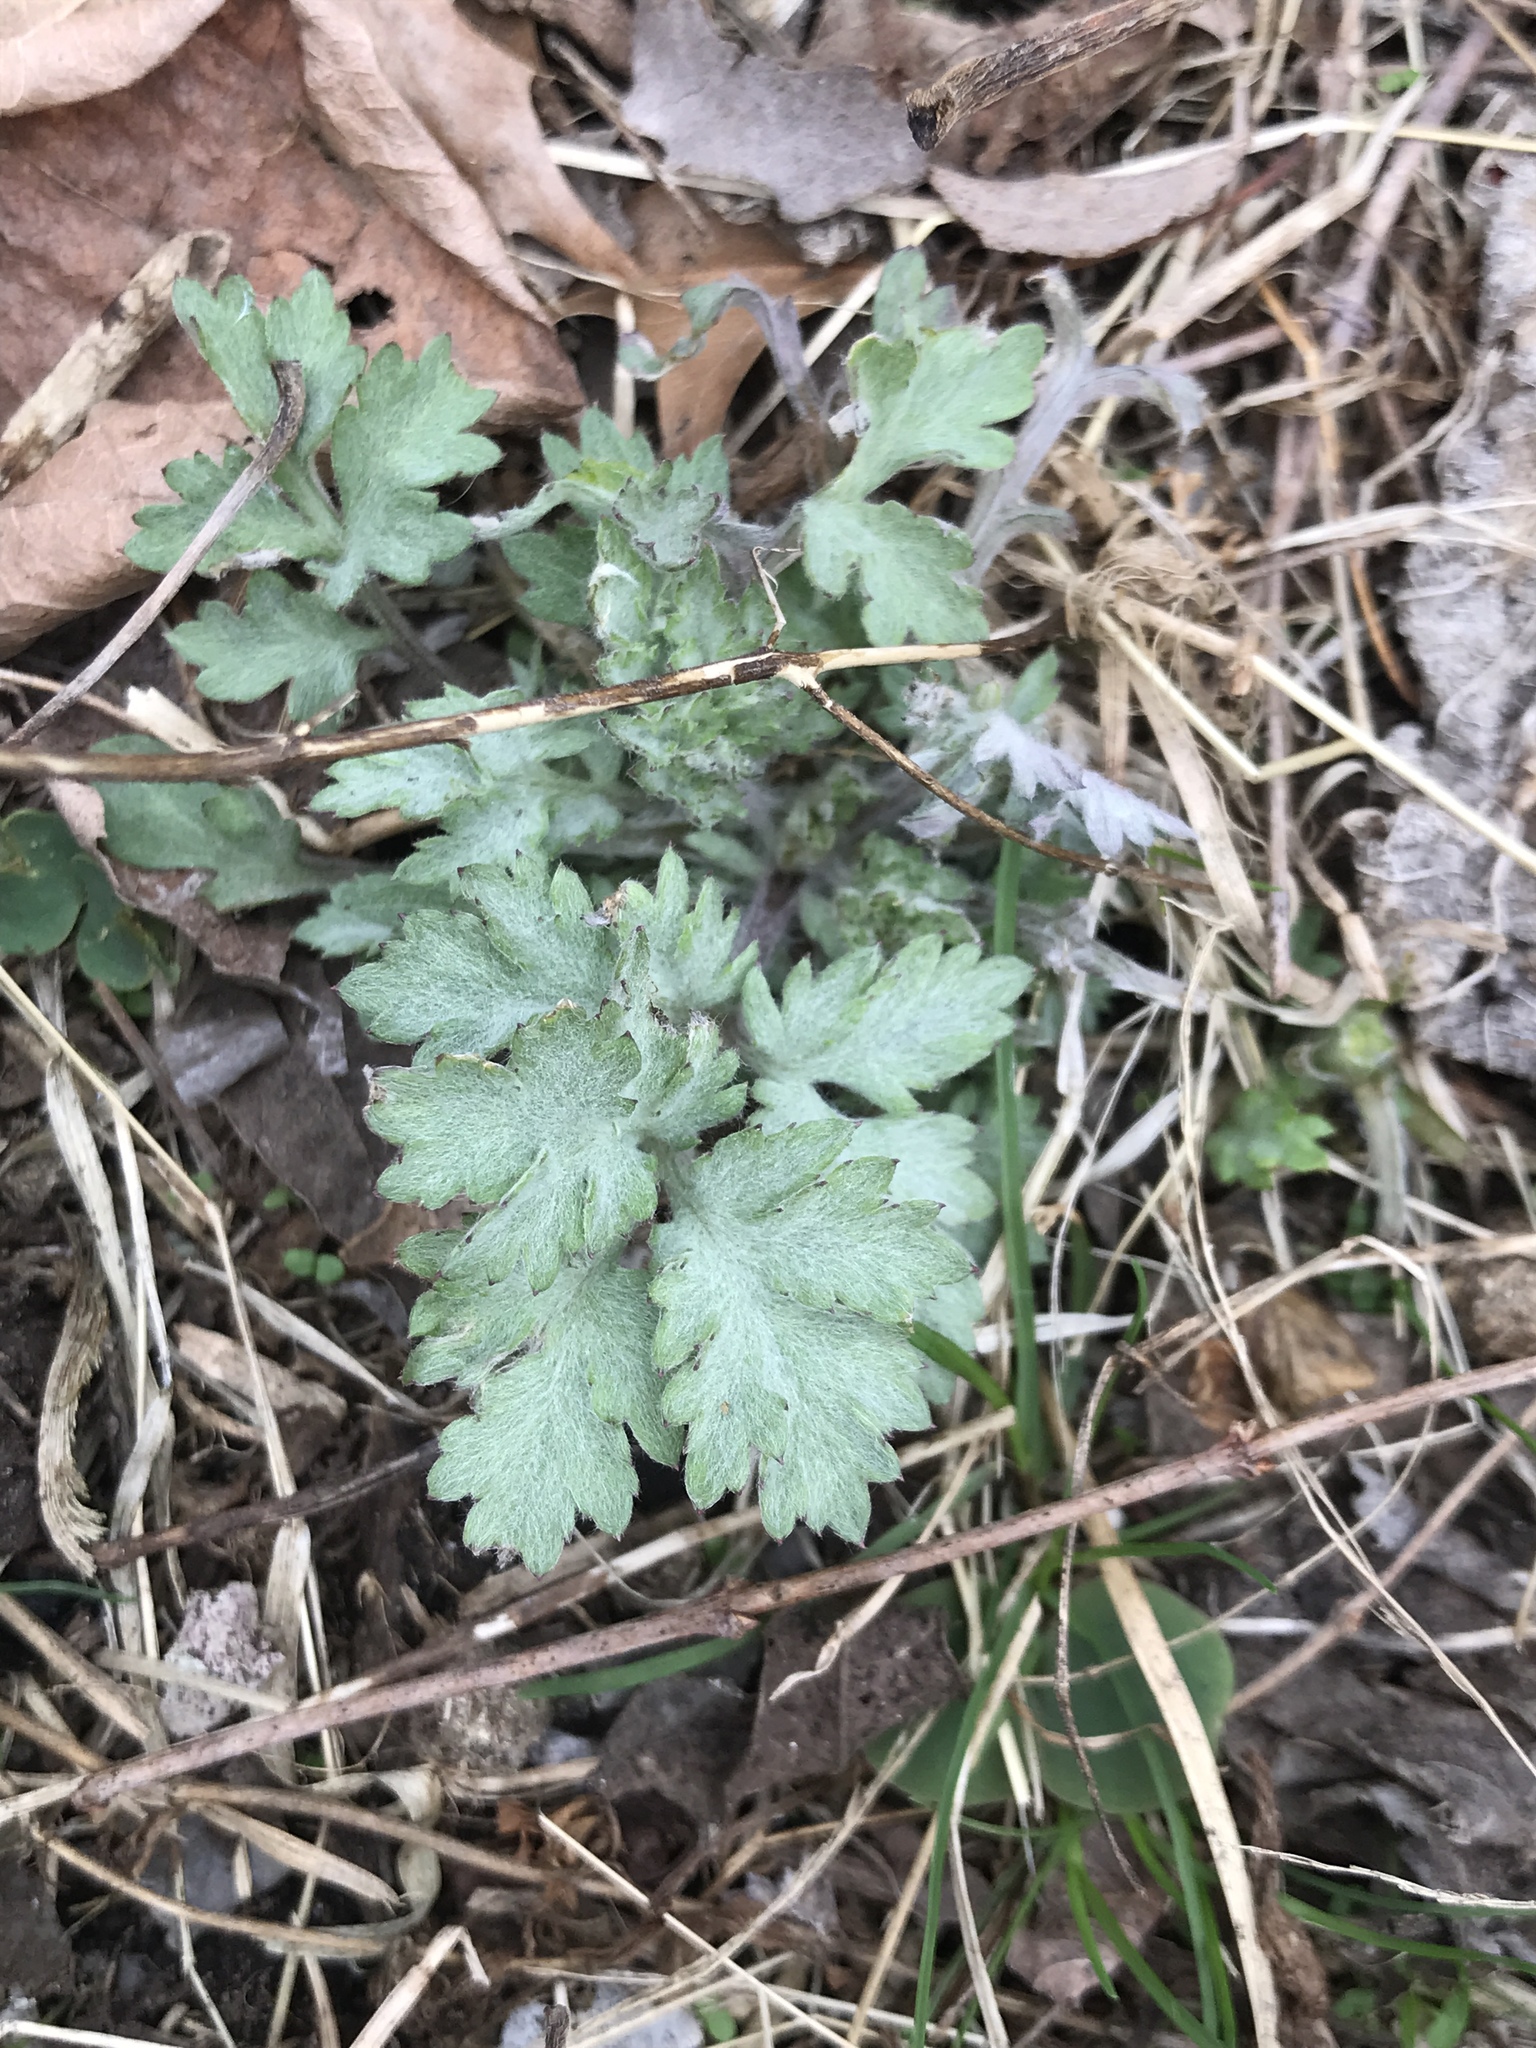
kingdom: Plantae
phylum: Tracheophyta
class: Magnoliopsida
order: Asterales
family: Asteraceae
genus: Artemisia
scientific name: Artemisia vulgaris
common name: Mugwort
